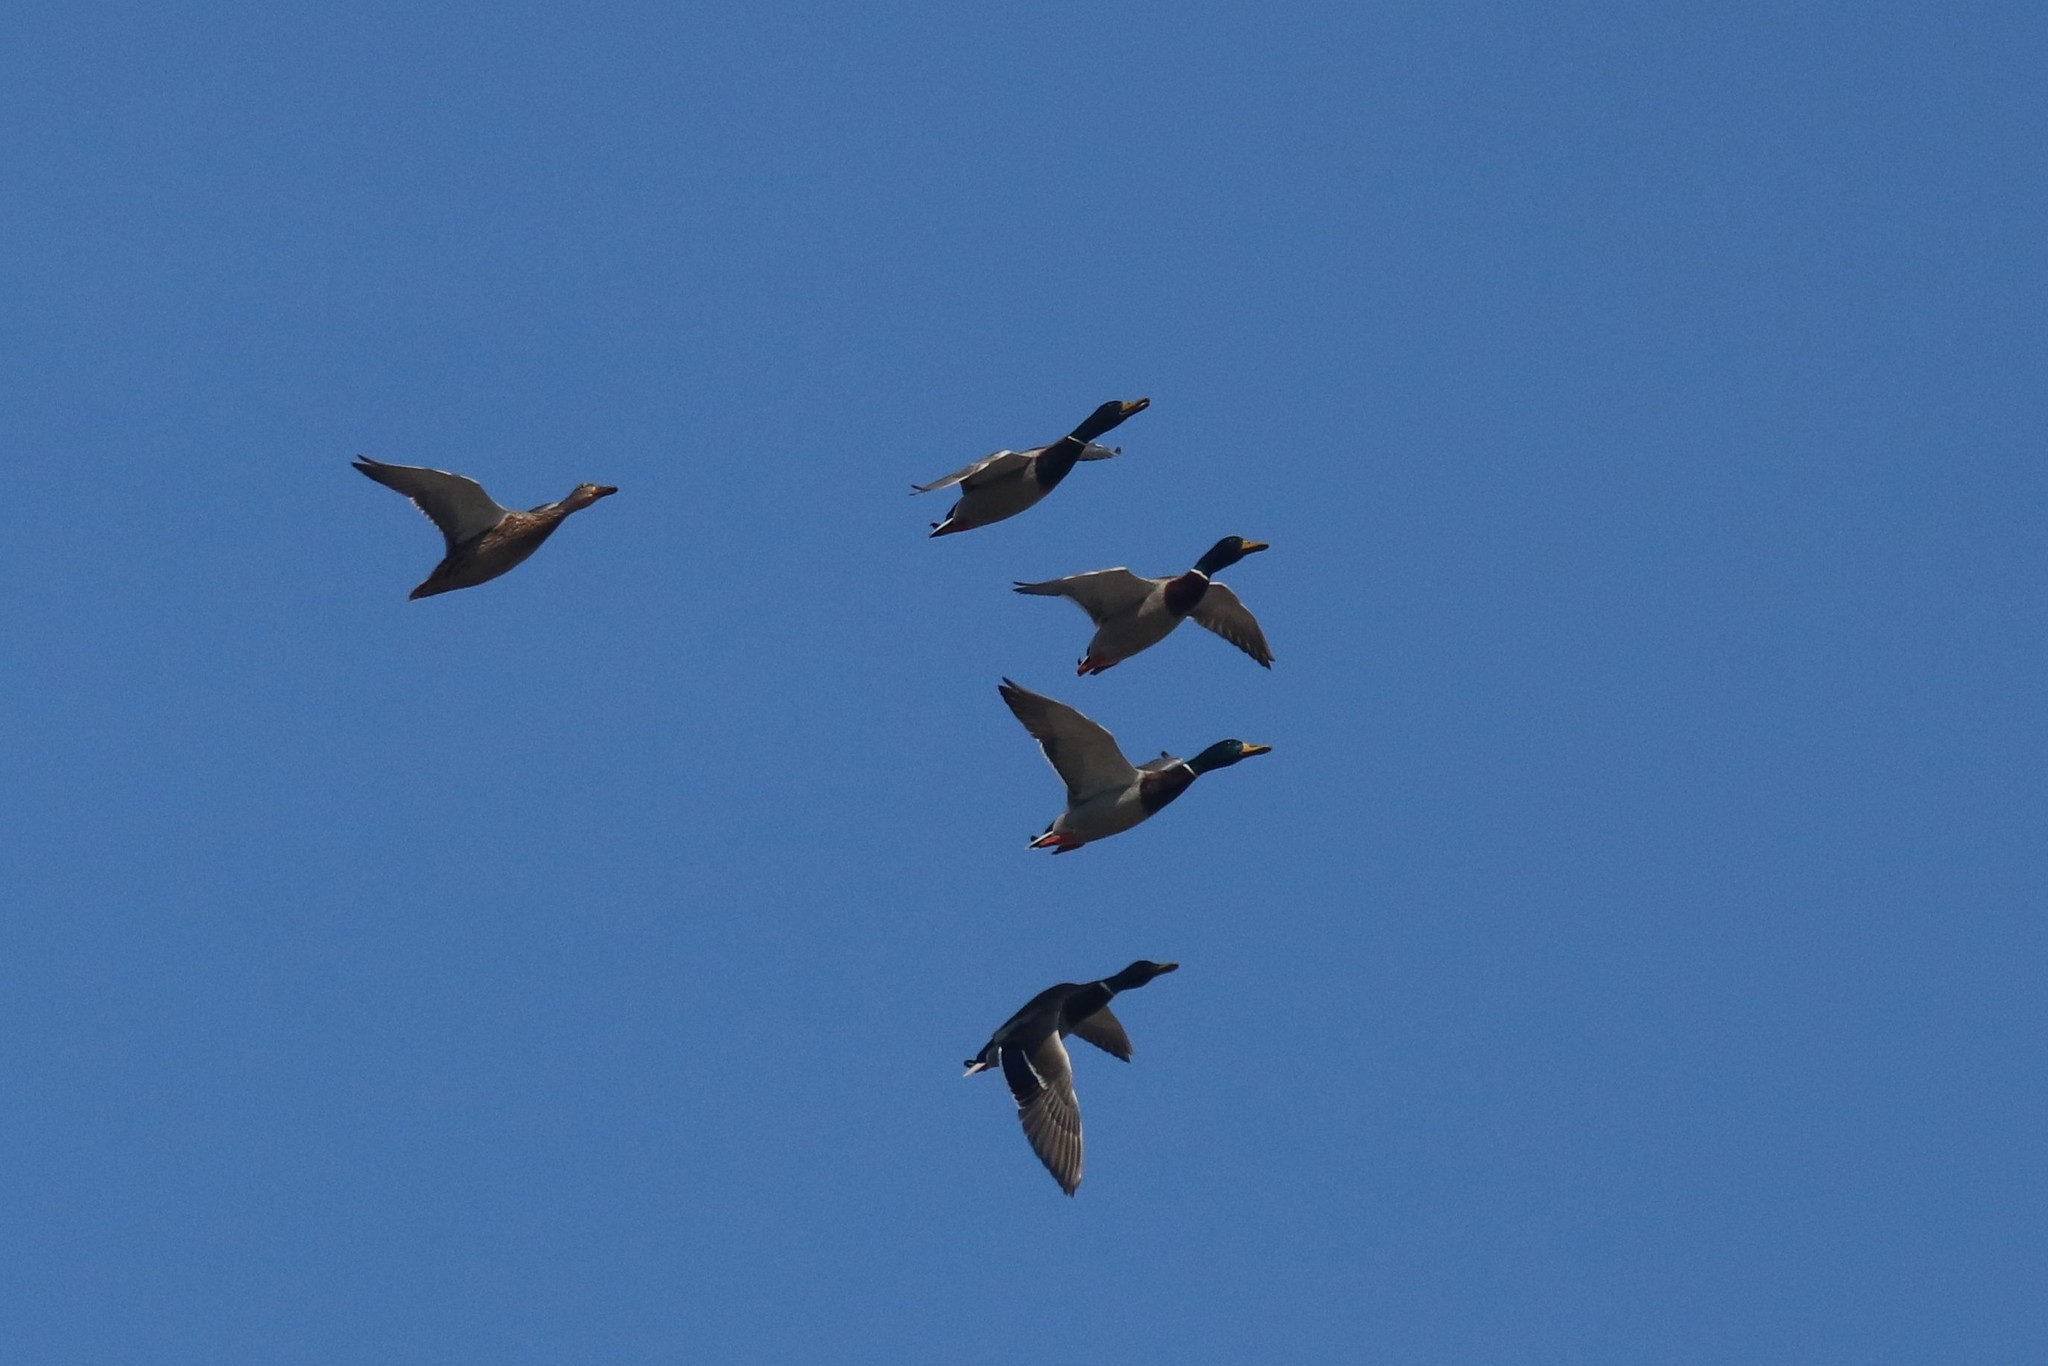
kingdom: Animalia
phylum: Chordata
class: Aves
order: Anseriformes
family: Anatidae
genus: Anas
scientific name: Anas platyrhynchos
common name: Mallard
